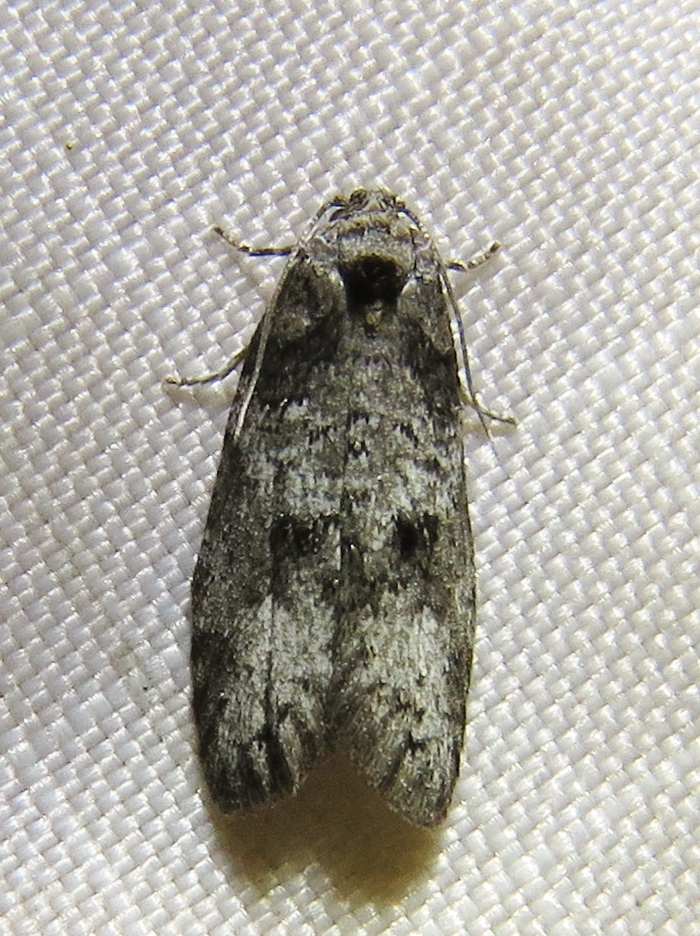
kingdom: Animalia
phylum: Arthropoda
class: Insecta
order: Lepidoptera
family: Tortricidae
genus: Decodes
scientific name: Decodes basiplagana
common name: Gray-marked tortricid
